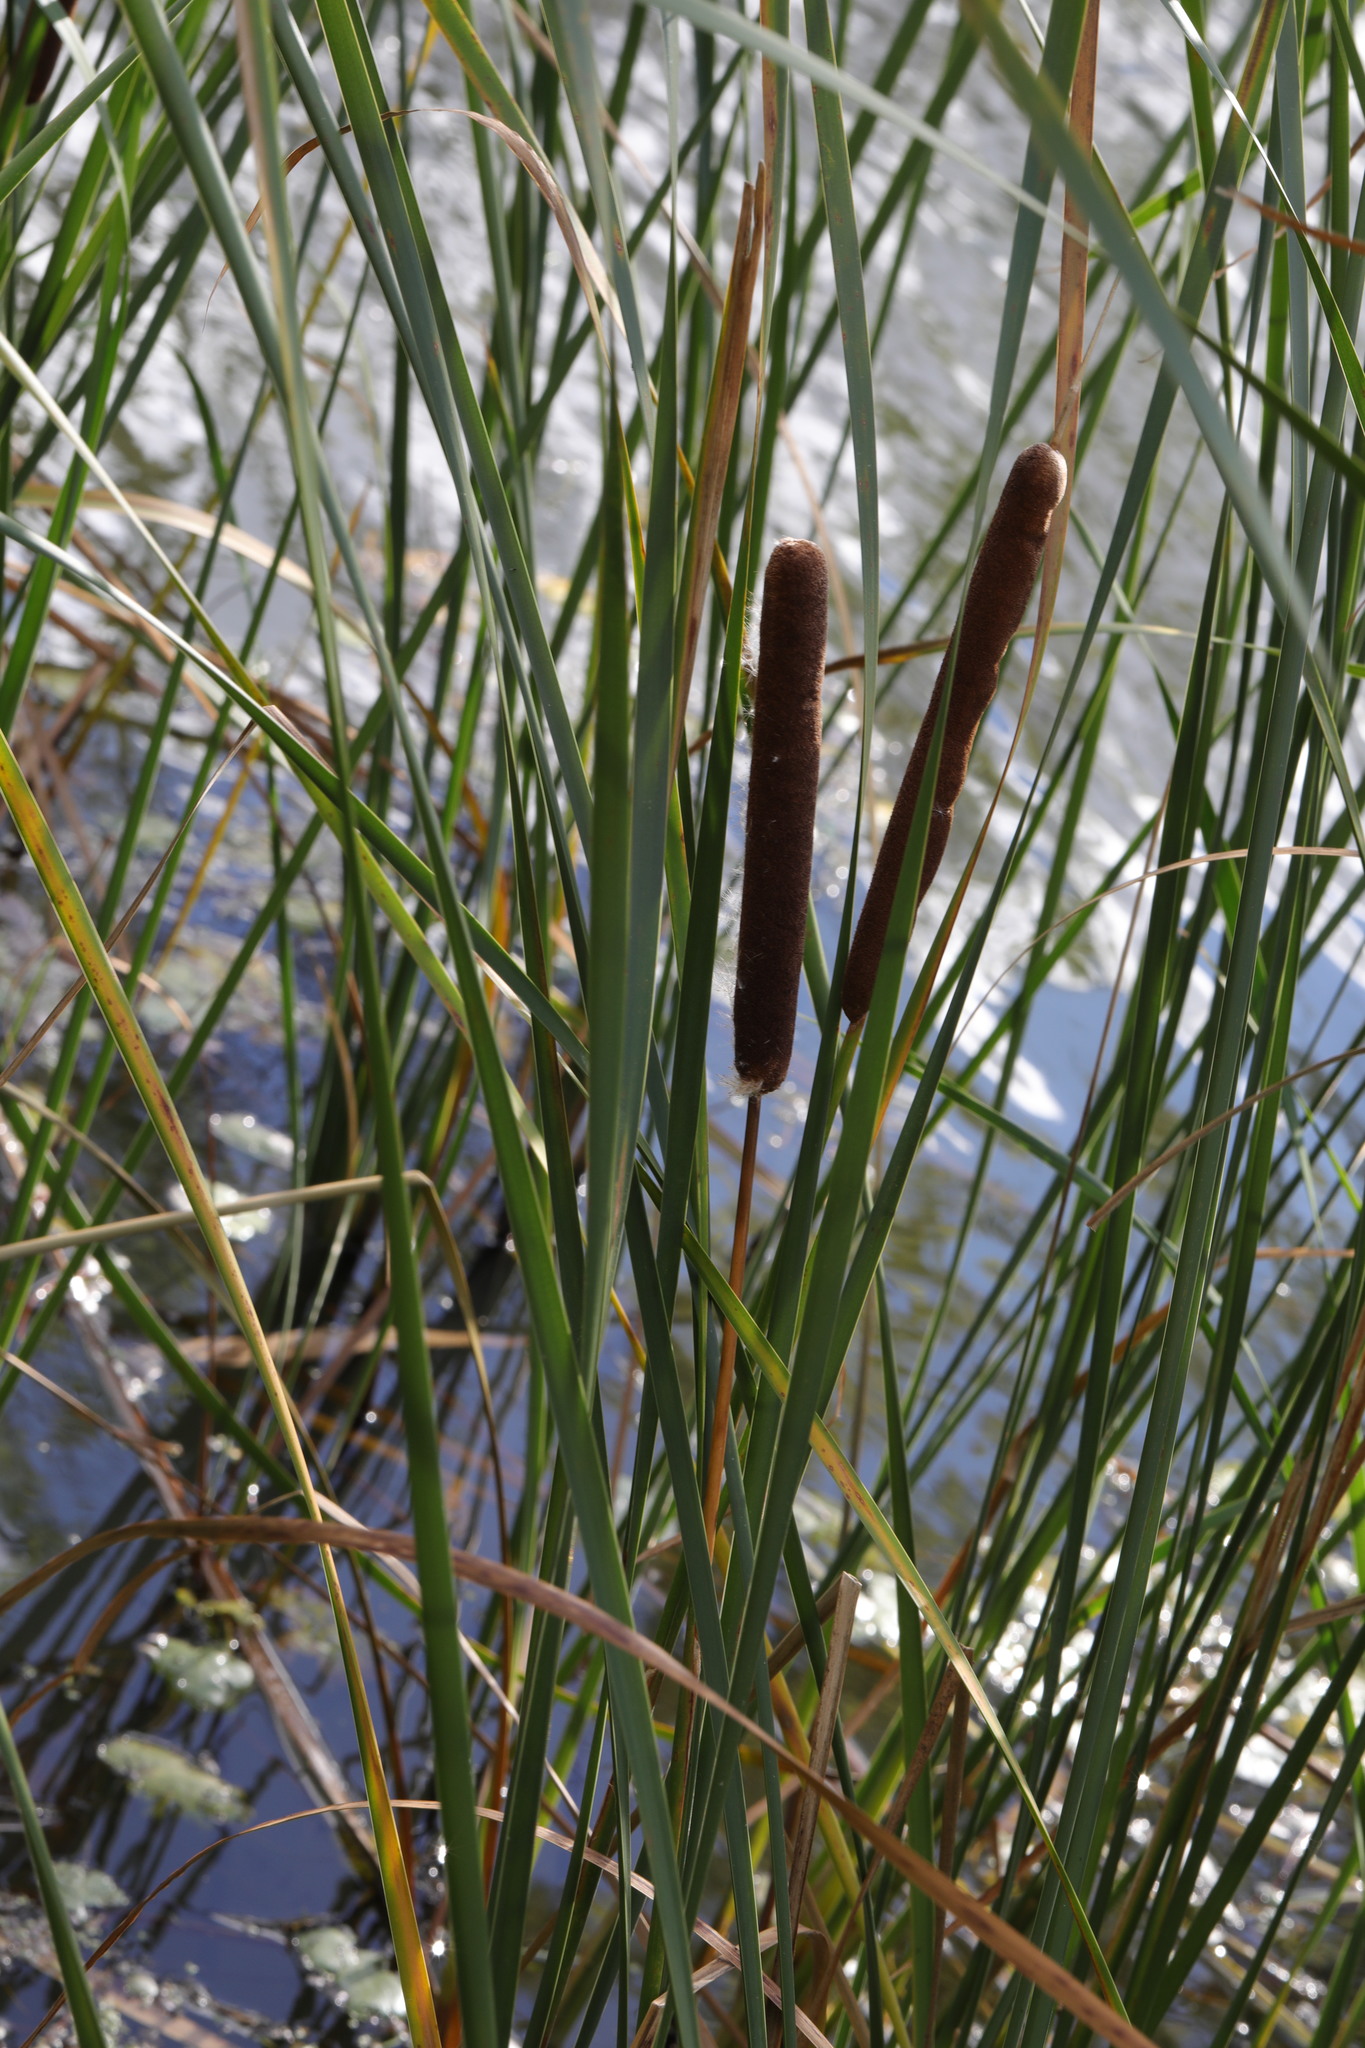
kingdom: Plantae
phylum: Tracheophyta
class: Liliopsida
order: Poales
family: Typhaceae
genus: Typha
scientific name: Typha angustifolia
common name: Lesser bulrush
